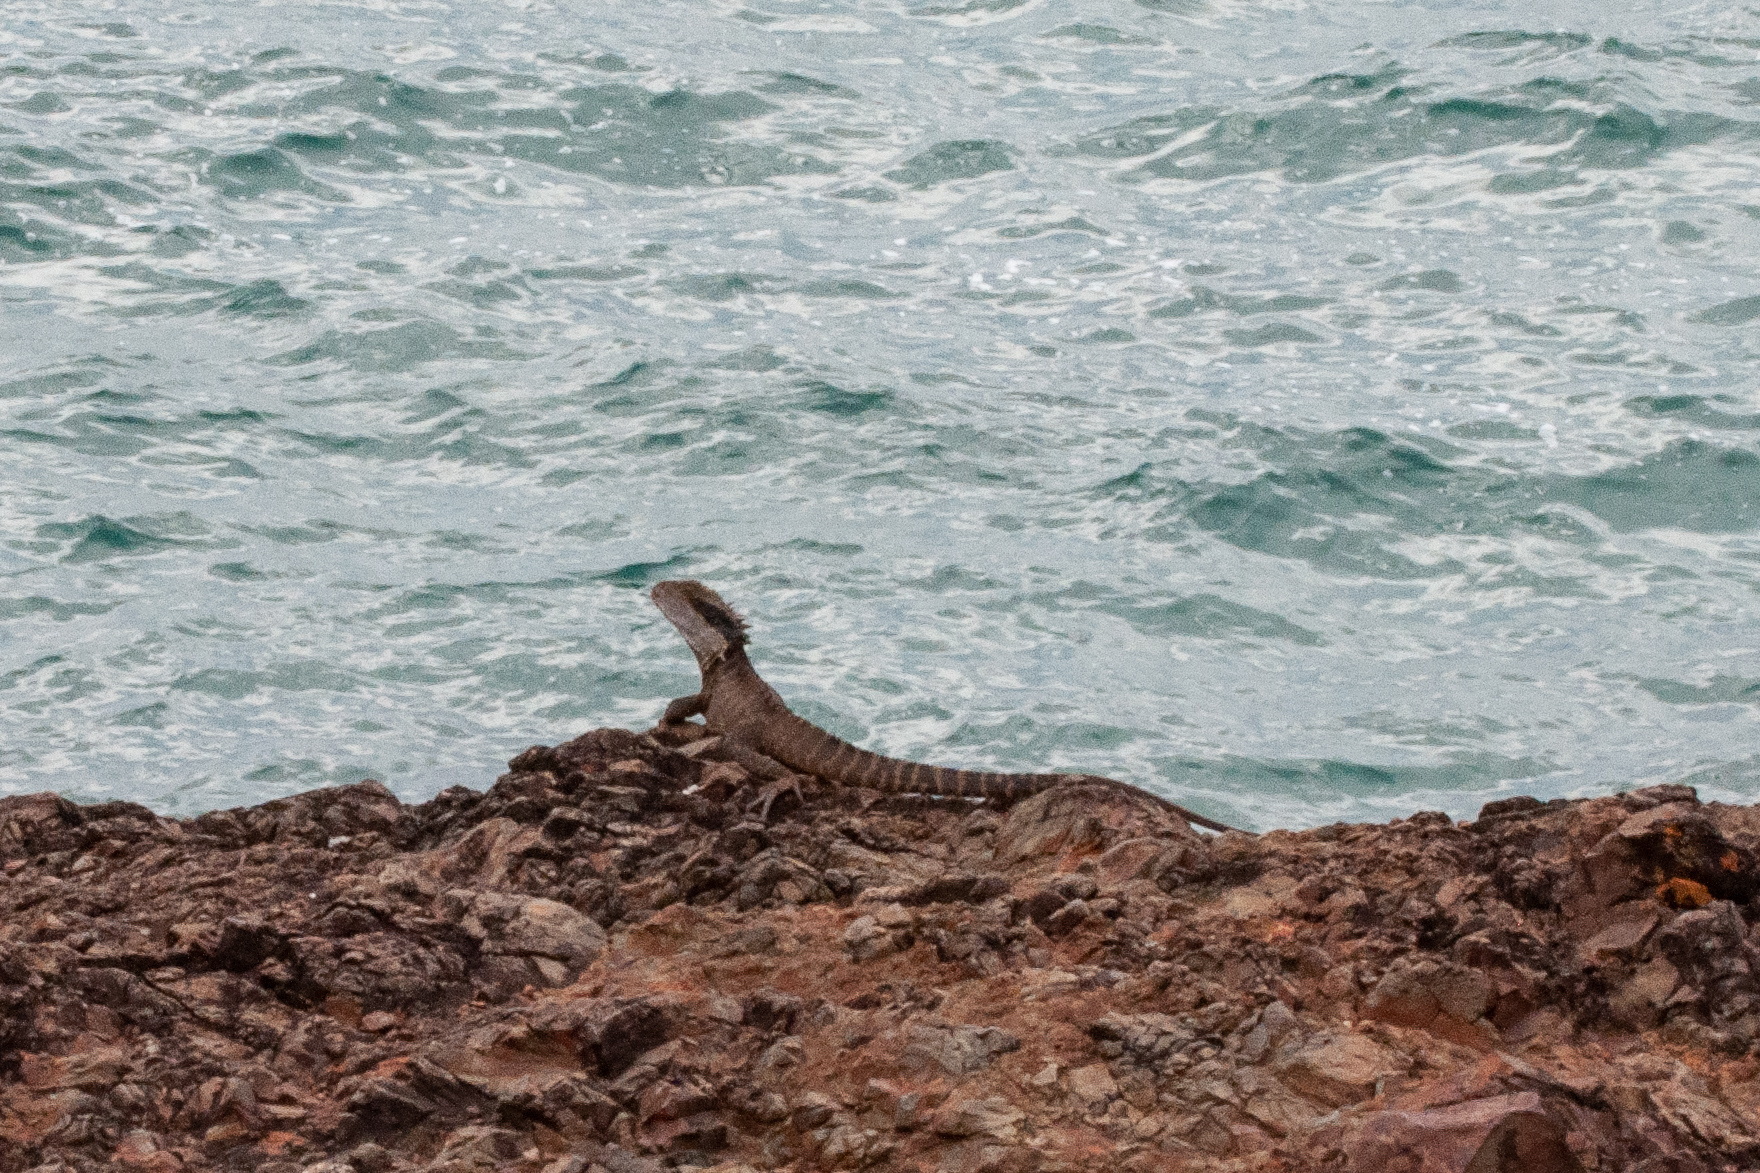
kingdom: Animalia
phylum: Chordata
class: Squamata
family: Agamidae
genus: Intellagama
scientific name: Intellagama lesueurii
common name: Eastern water dragon
